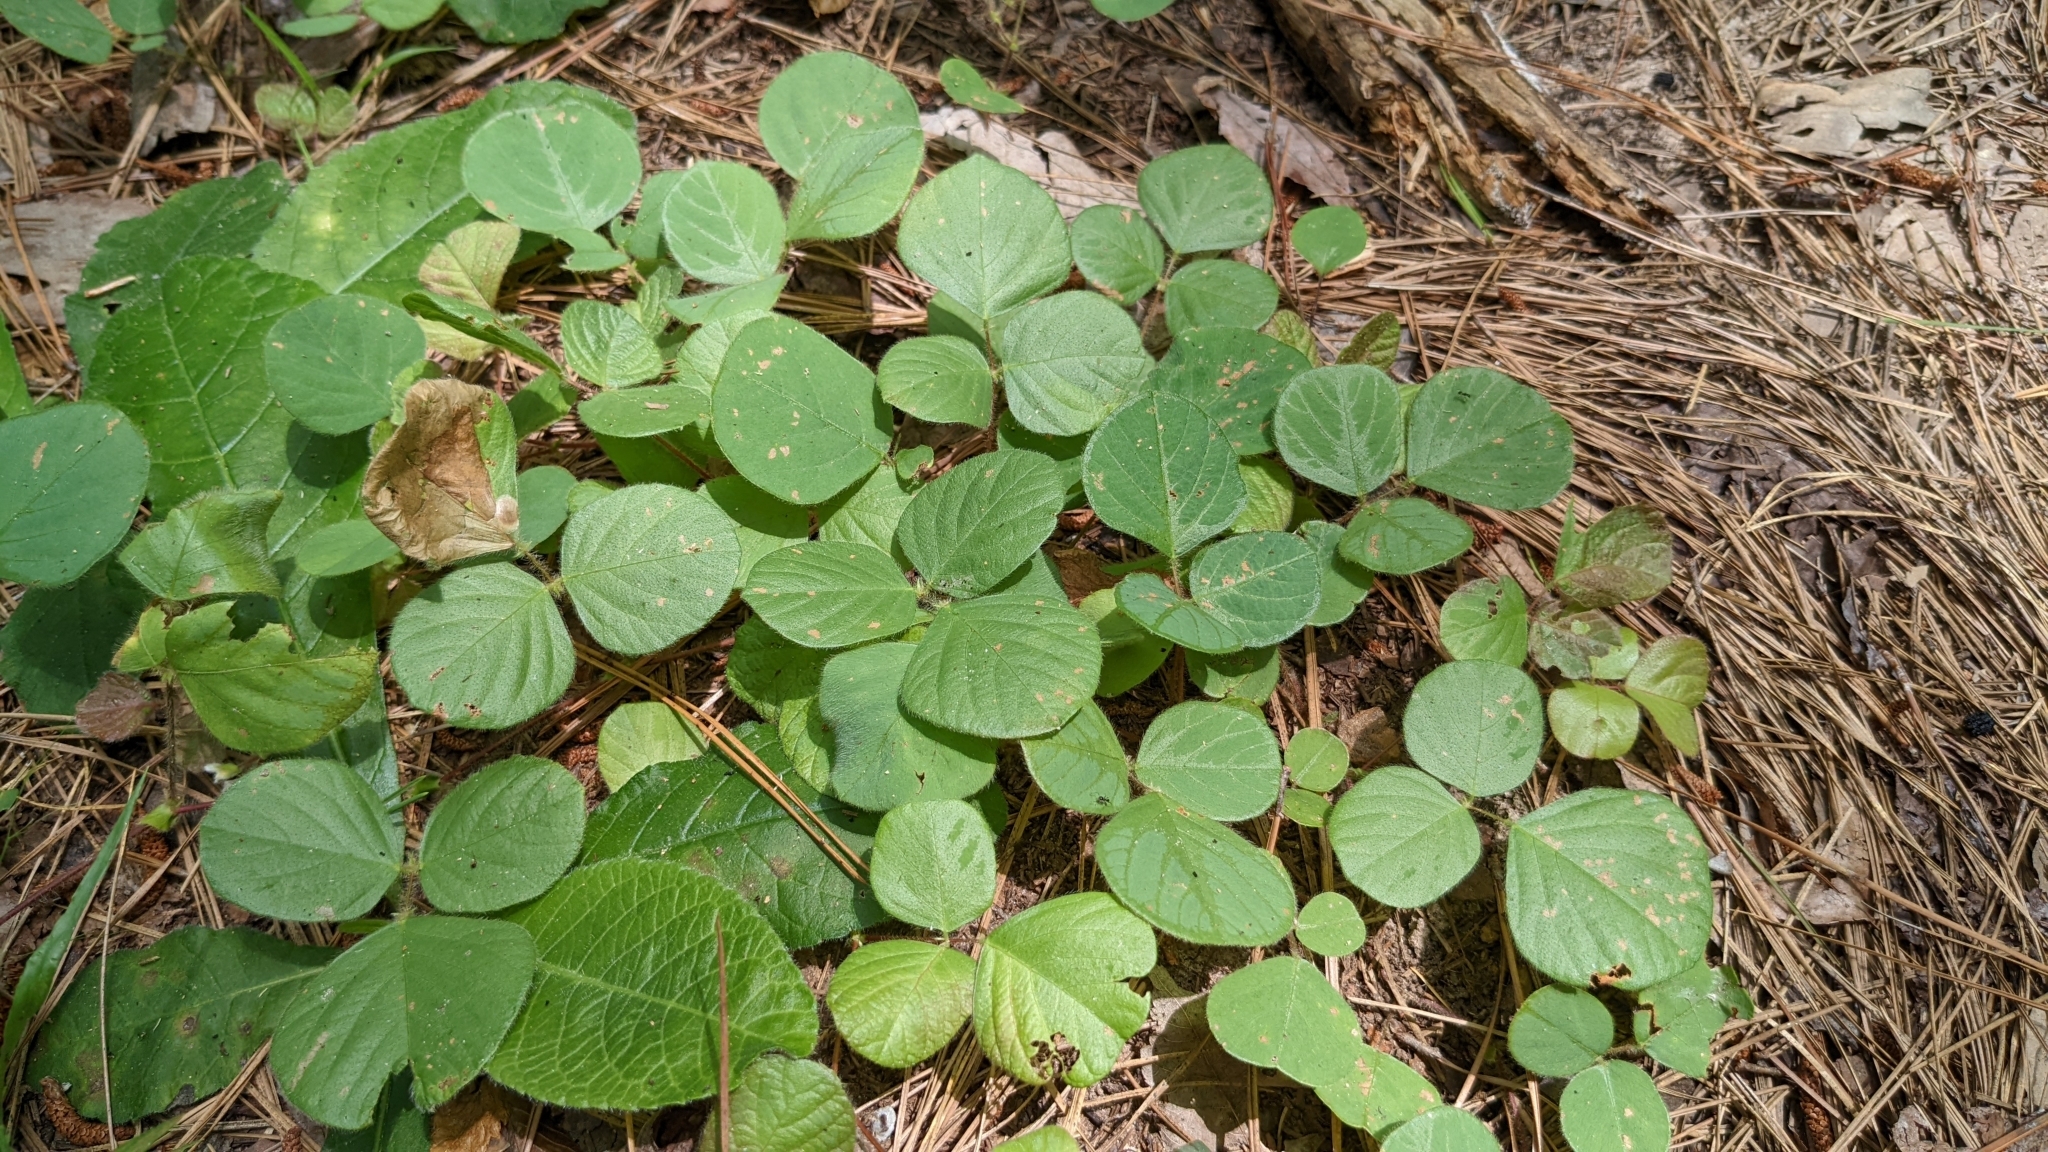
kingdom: Plantae
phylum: Tracheophyta
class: Magnoliopsida
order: Fabales
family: Fabaceae
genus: Desmodium
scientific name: Desmodium rotundifolium
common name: Dollarleaf
